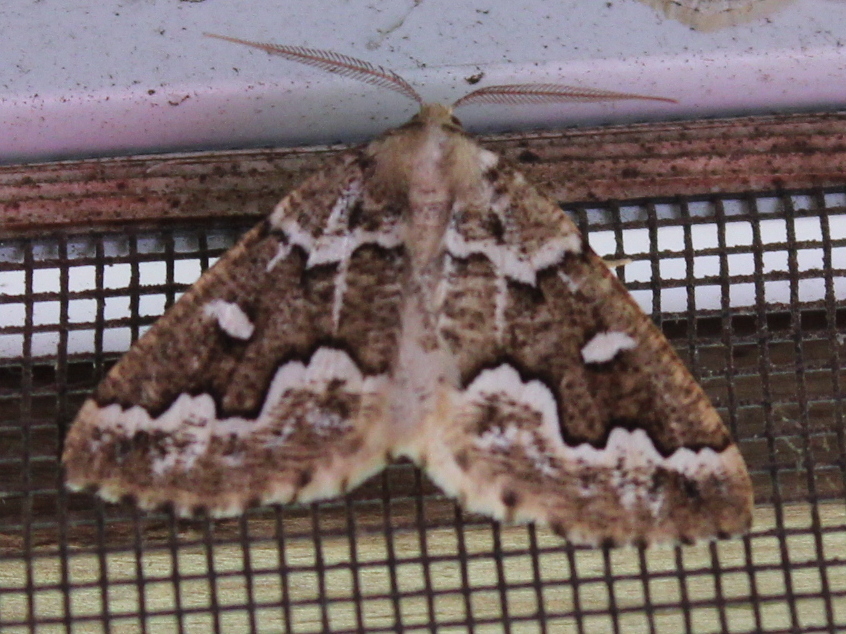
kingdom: Animalia
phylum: Arthropoda
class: Insecta
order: Lepidoptera
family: Geometridae
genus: Caripeta
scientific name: Caripeta divisata
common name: Gray spruce looper
